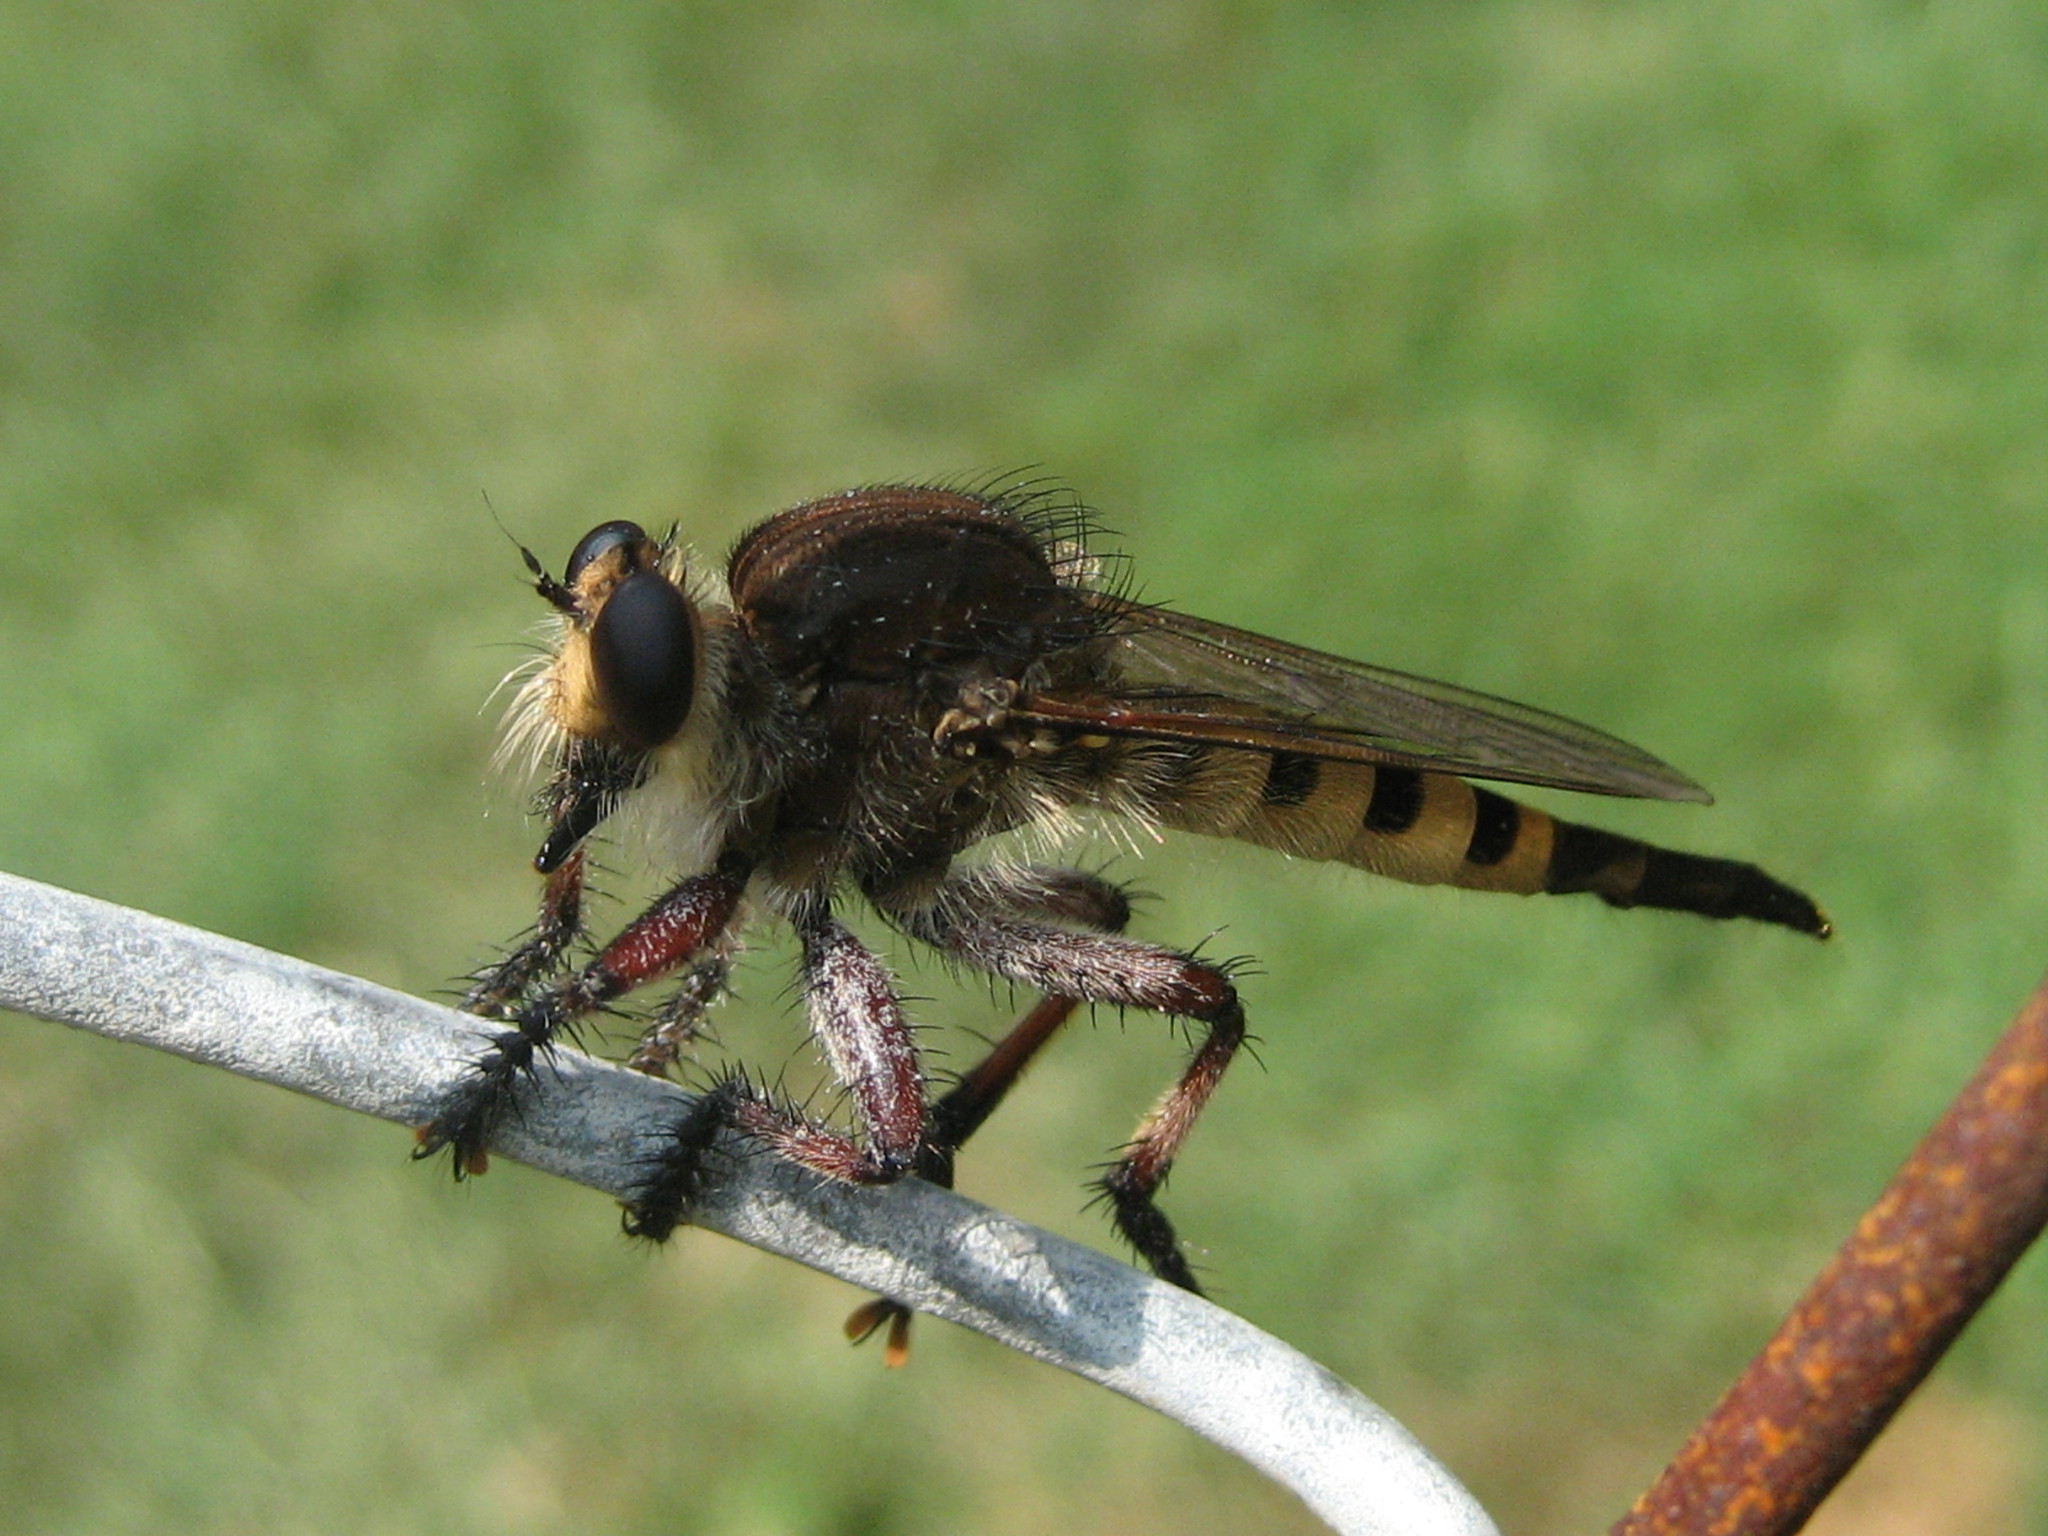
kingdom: Animalia
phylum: Arthropoda
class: Insecta
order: Diptera
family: Asilidae
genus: Promachus
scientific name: Promachus hinei
